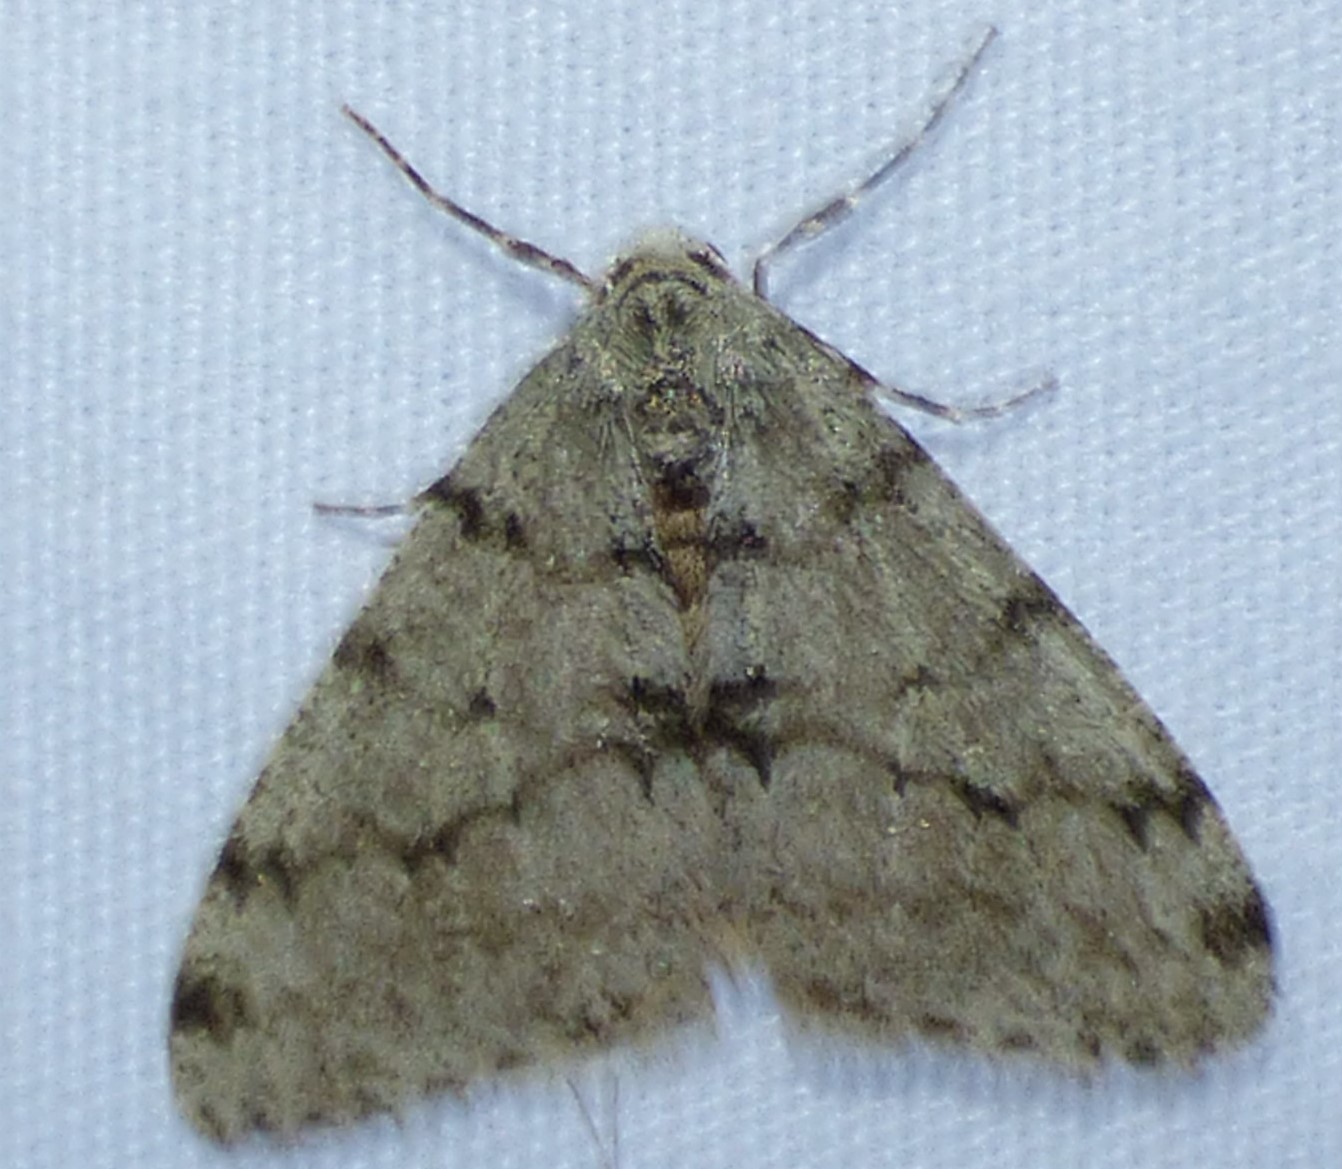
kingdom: Animalia
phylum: Arthropoda
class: Insecta
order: Lepidoptera
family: Geometridae
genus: Phigalia
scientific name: Phigalia strigataria
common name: Small phigalia
